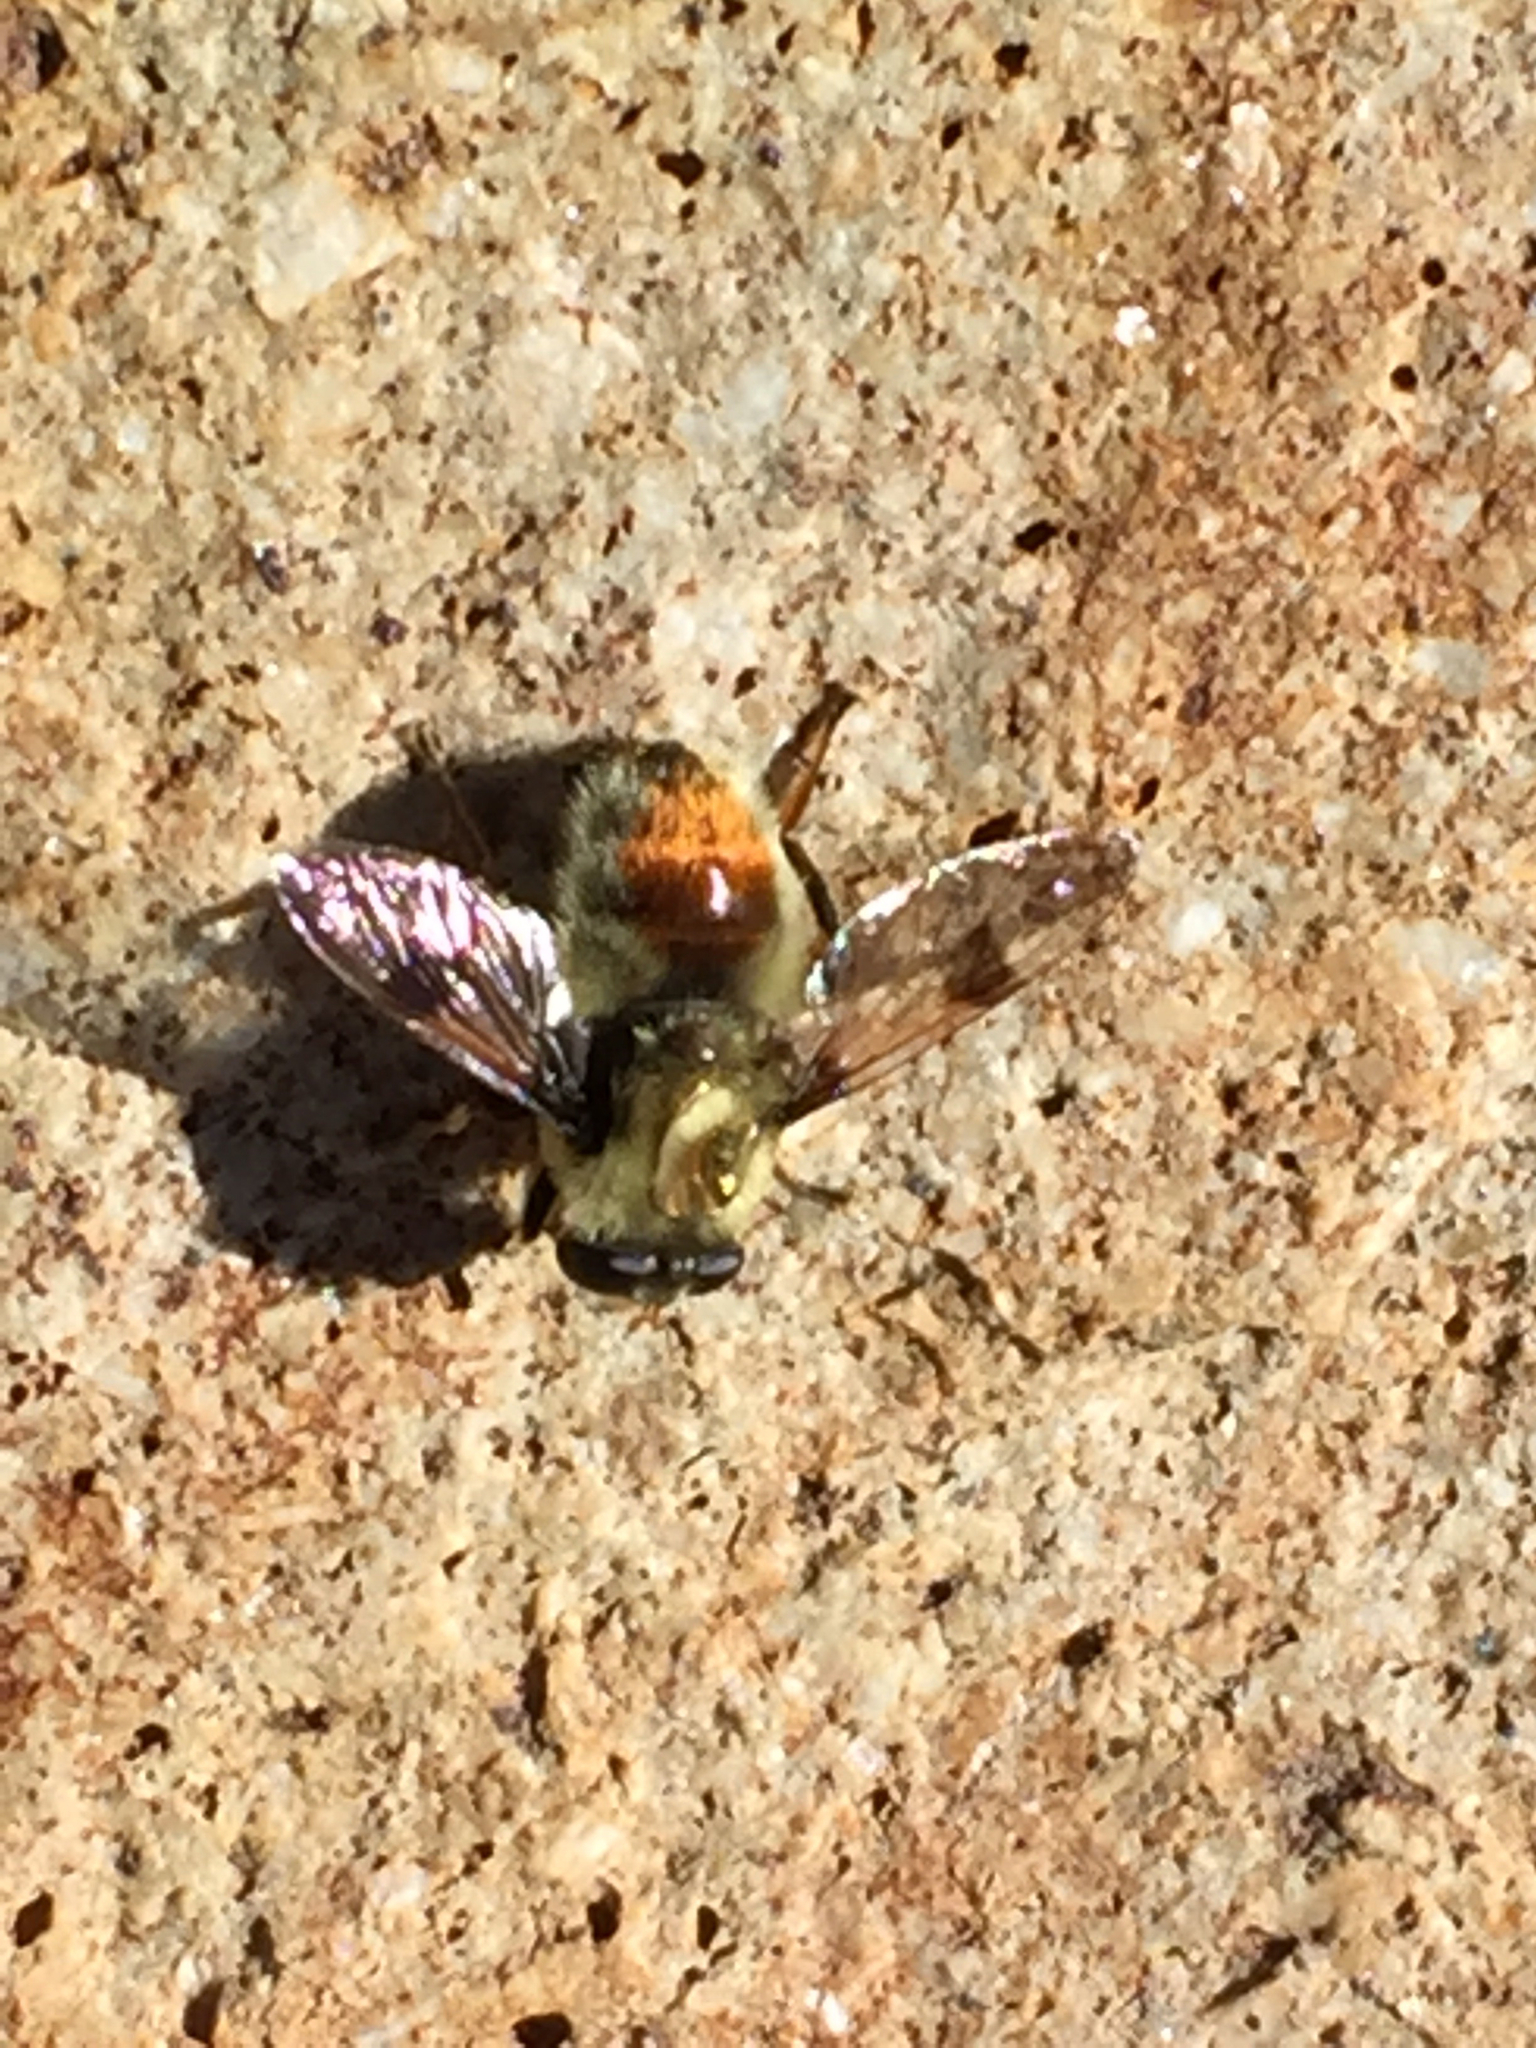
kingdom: Animalia
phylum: Arthropoda
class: Insecta
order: Diptera
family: Syrphidae
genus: Sericomyia
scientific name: Sericomyia flagrans
